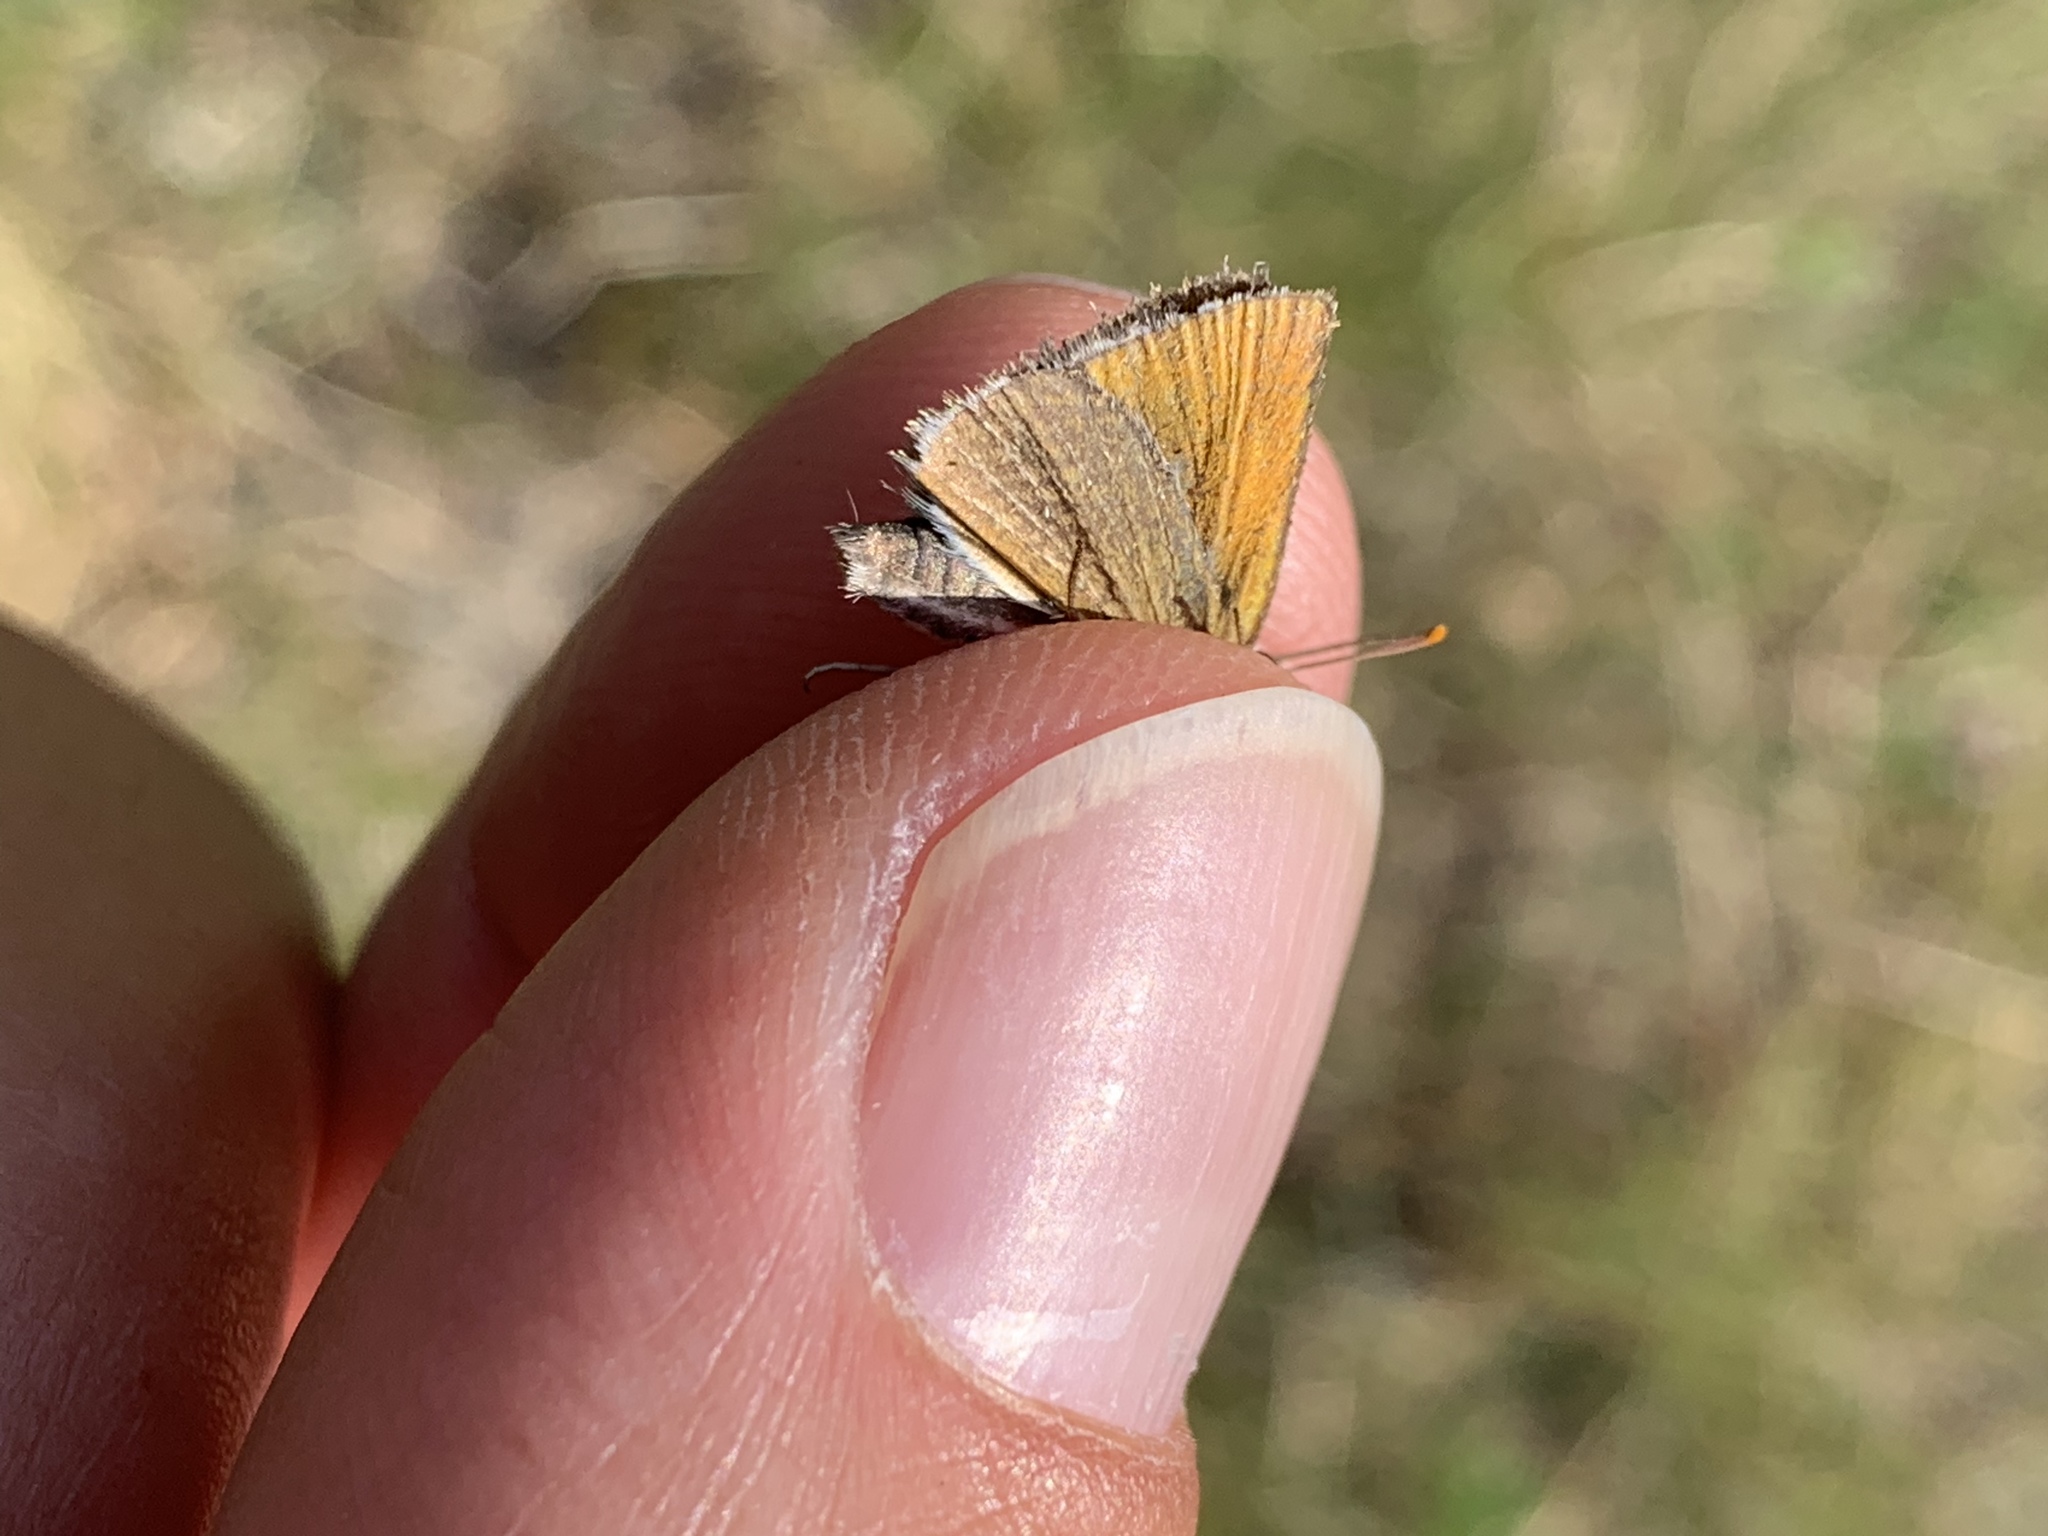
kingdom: Animalia
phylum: Arthropoda
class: Insecta
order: Lepidoptera
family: Hesperiidae
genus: Thymelicus
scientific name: Thymelicus lineola
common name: Essex skipper
